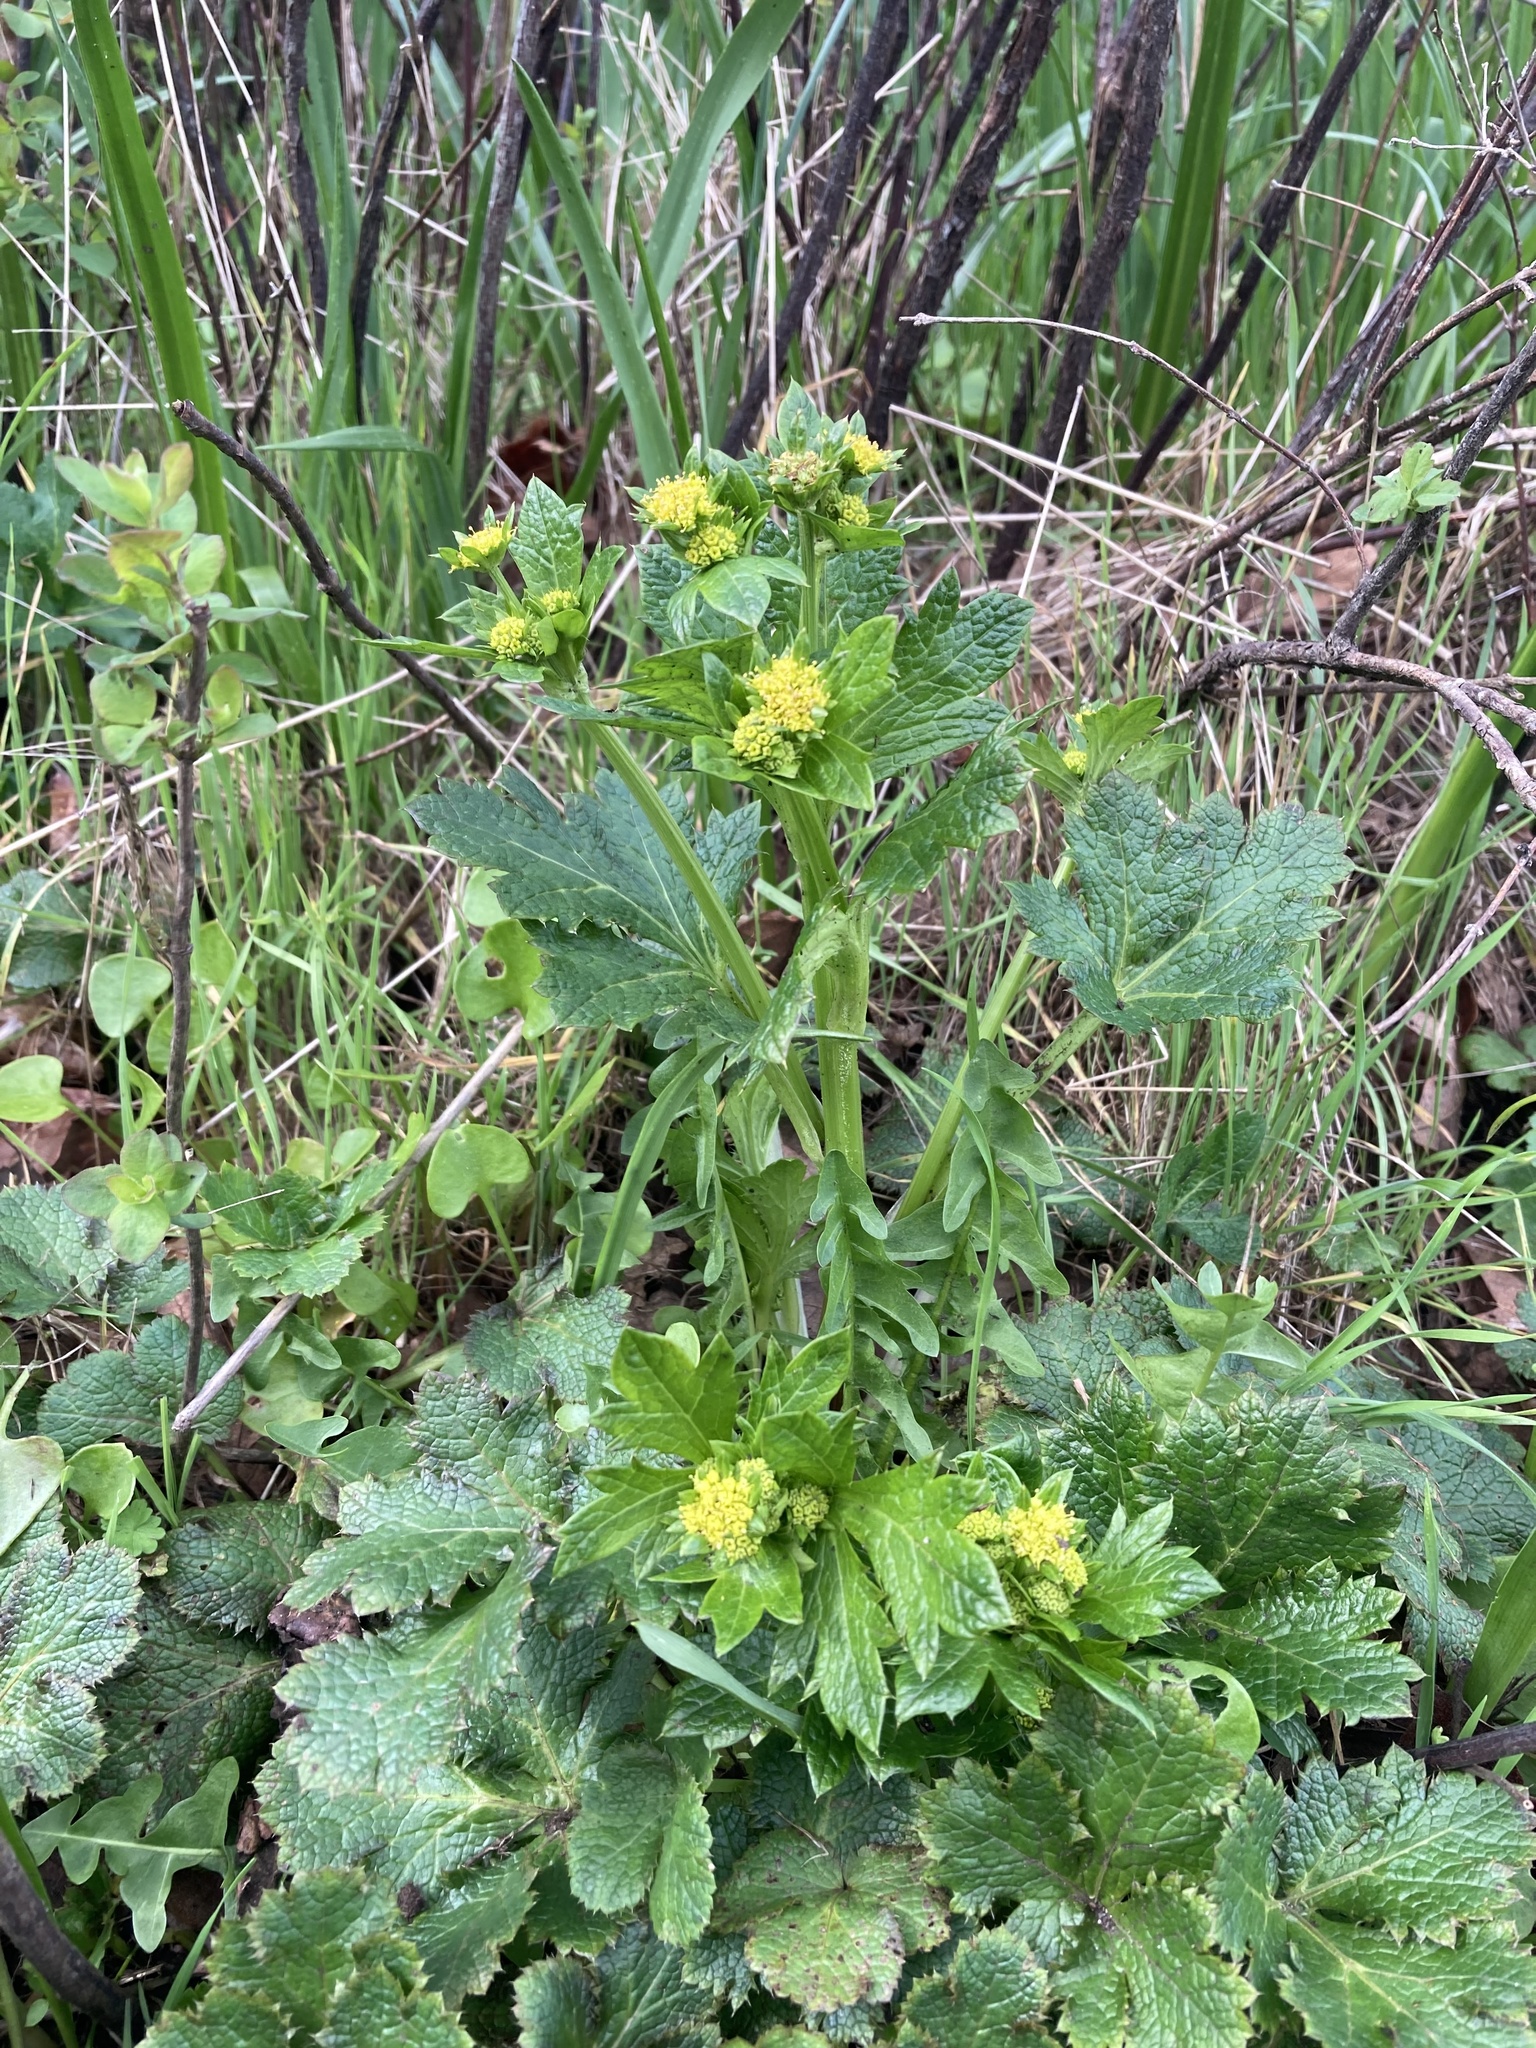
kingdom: Plantae
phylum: Tracheophyta
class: Magnoliopsida
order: Apiales
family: Apiaceae
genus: Sanicula
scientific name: Sanicula crassicaulis
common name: Western snakeroot
